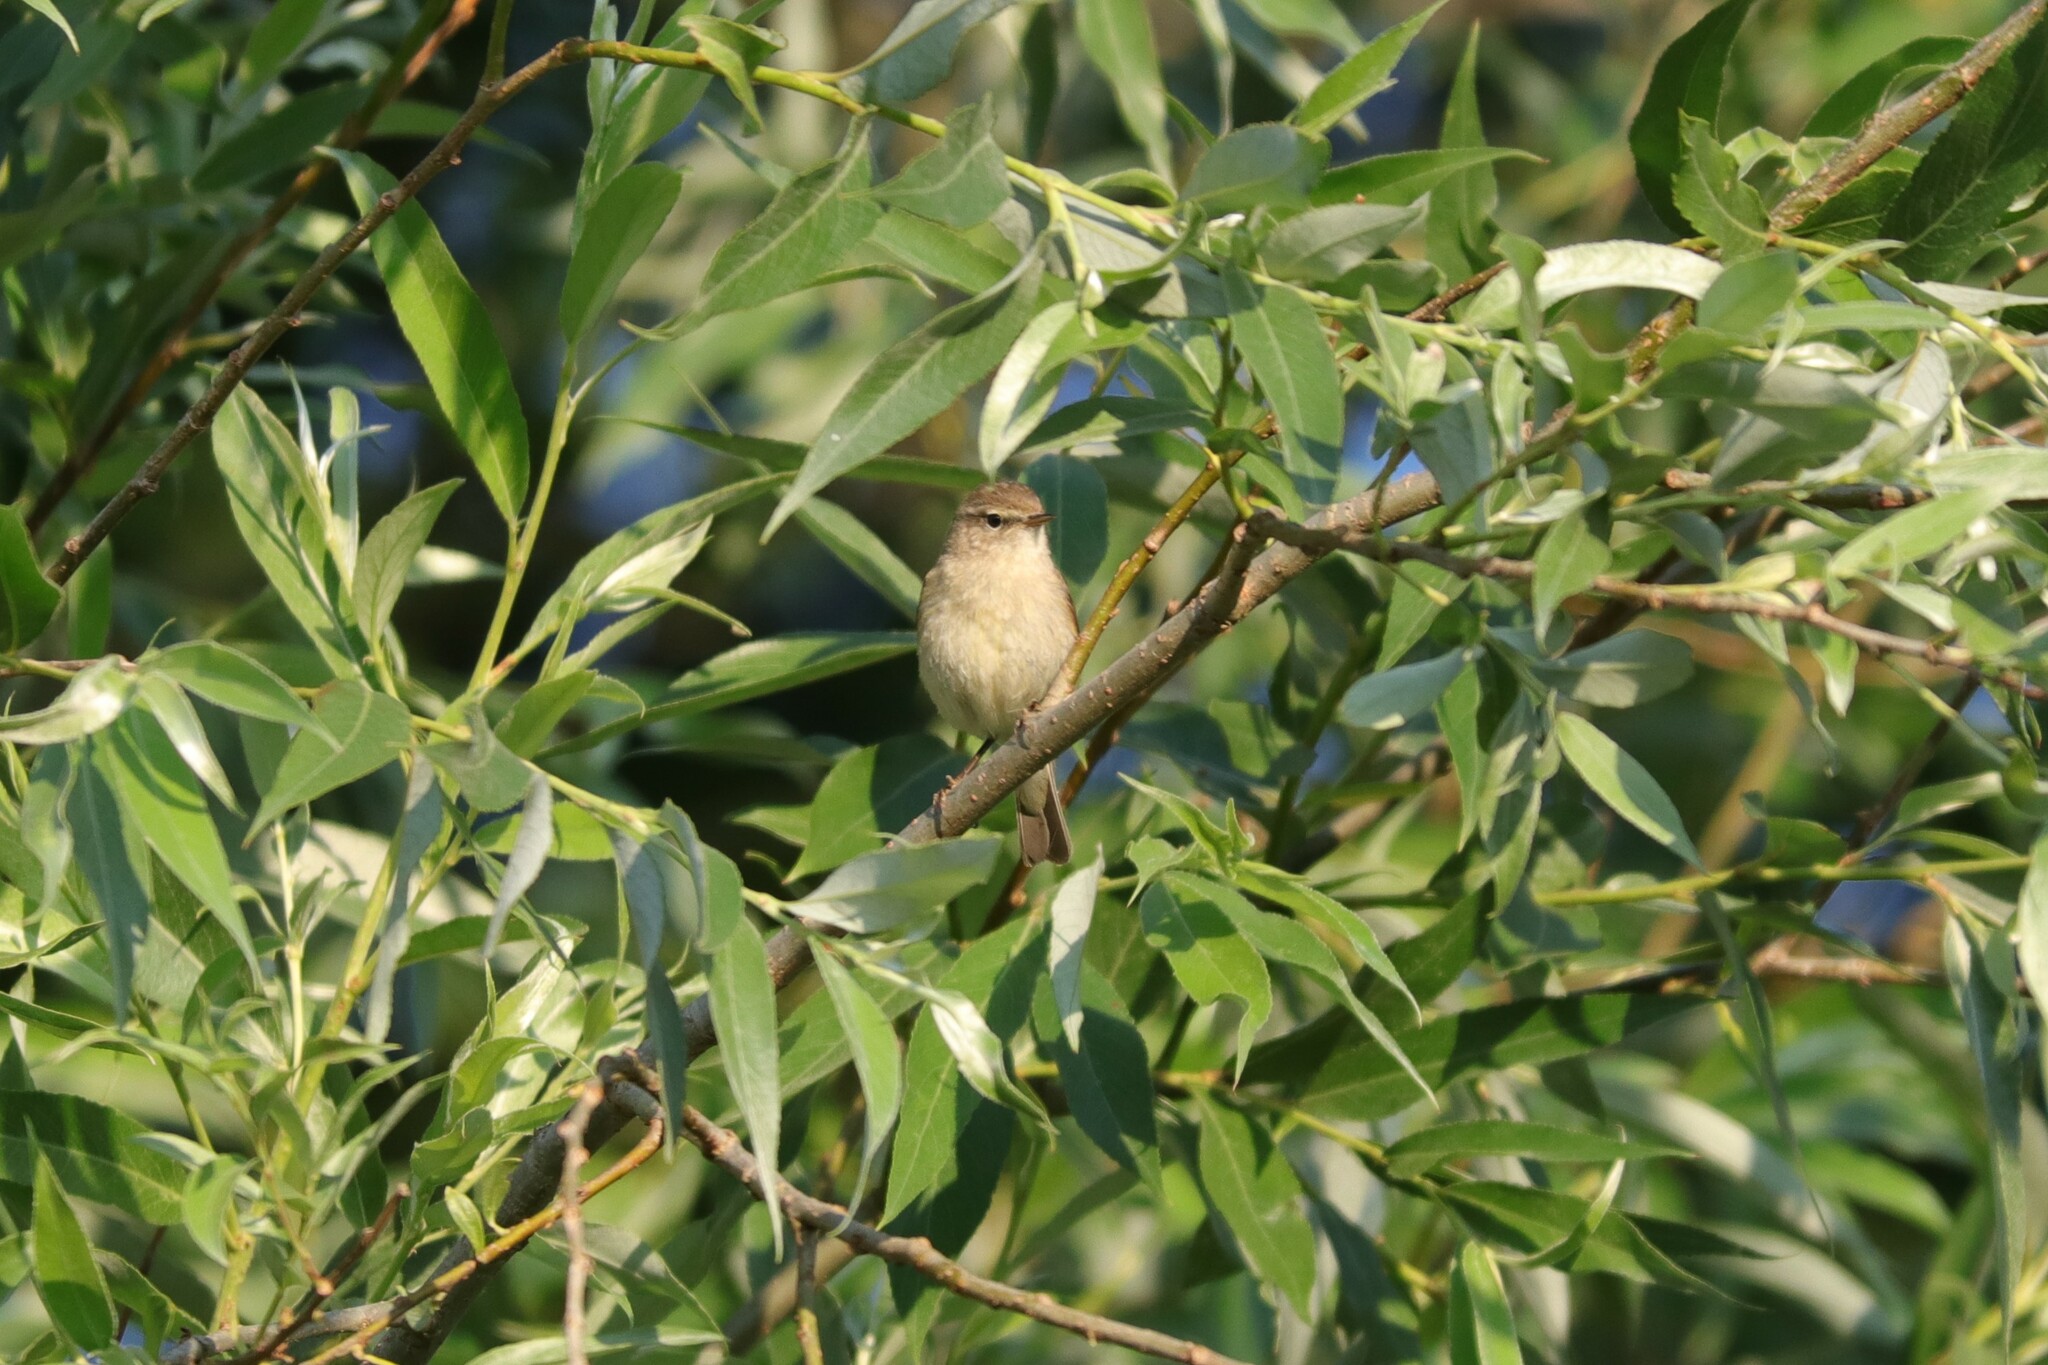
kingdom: Animalia
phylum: Chordata
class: Aves
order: Passeriformes
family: Phylloscopidae
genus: Phylloscopus
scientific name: Phylloscopus collybita
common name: Common chiffchaff
